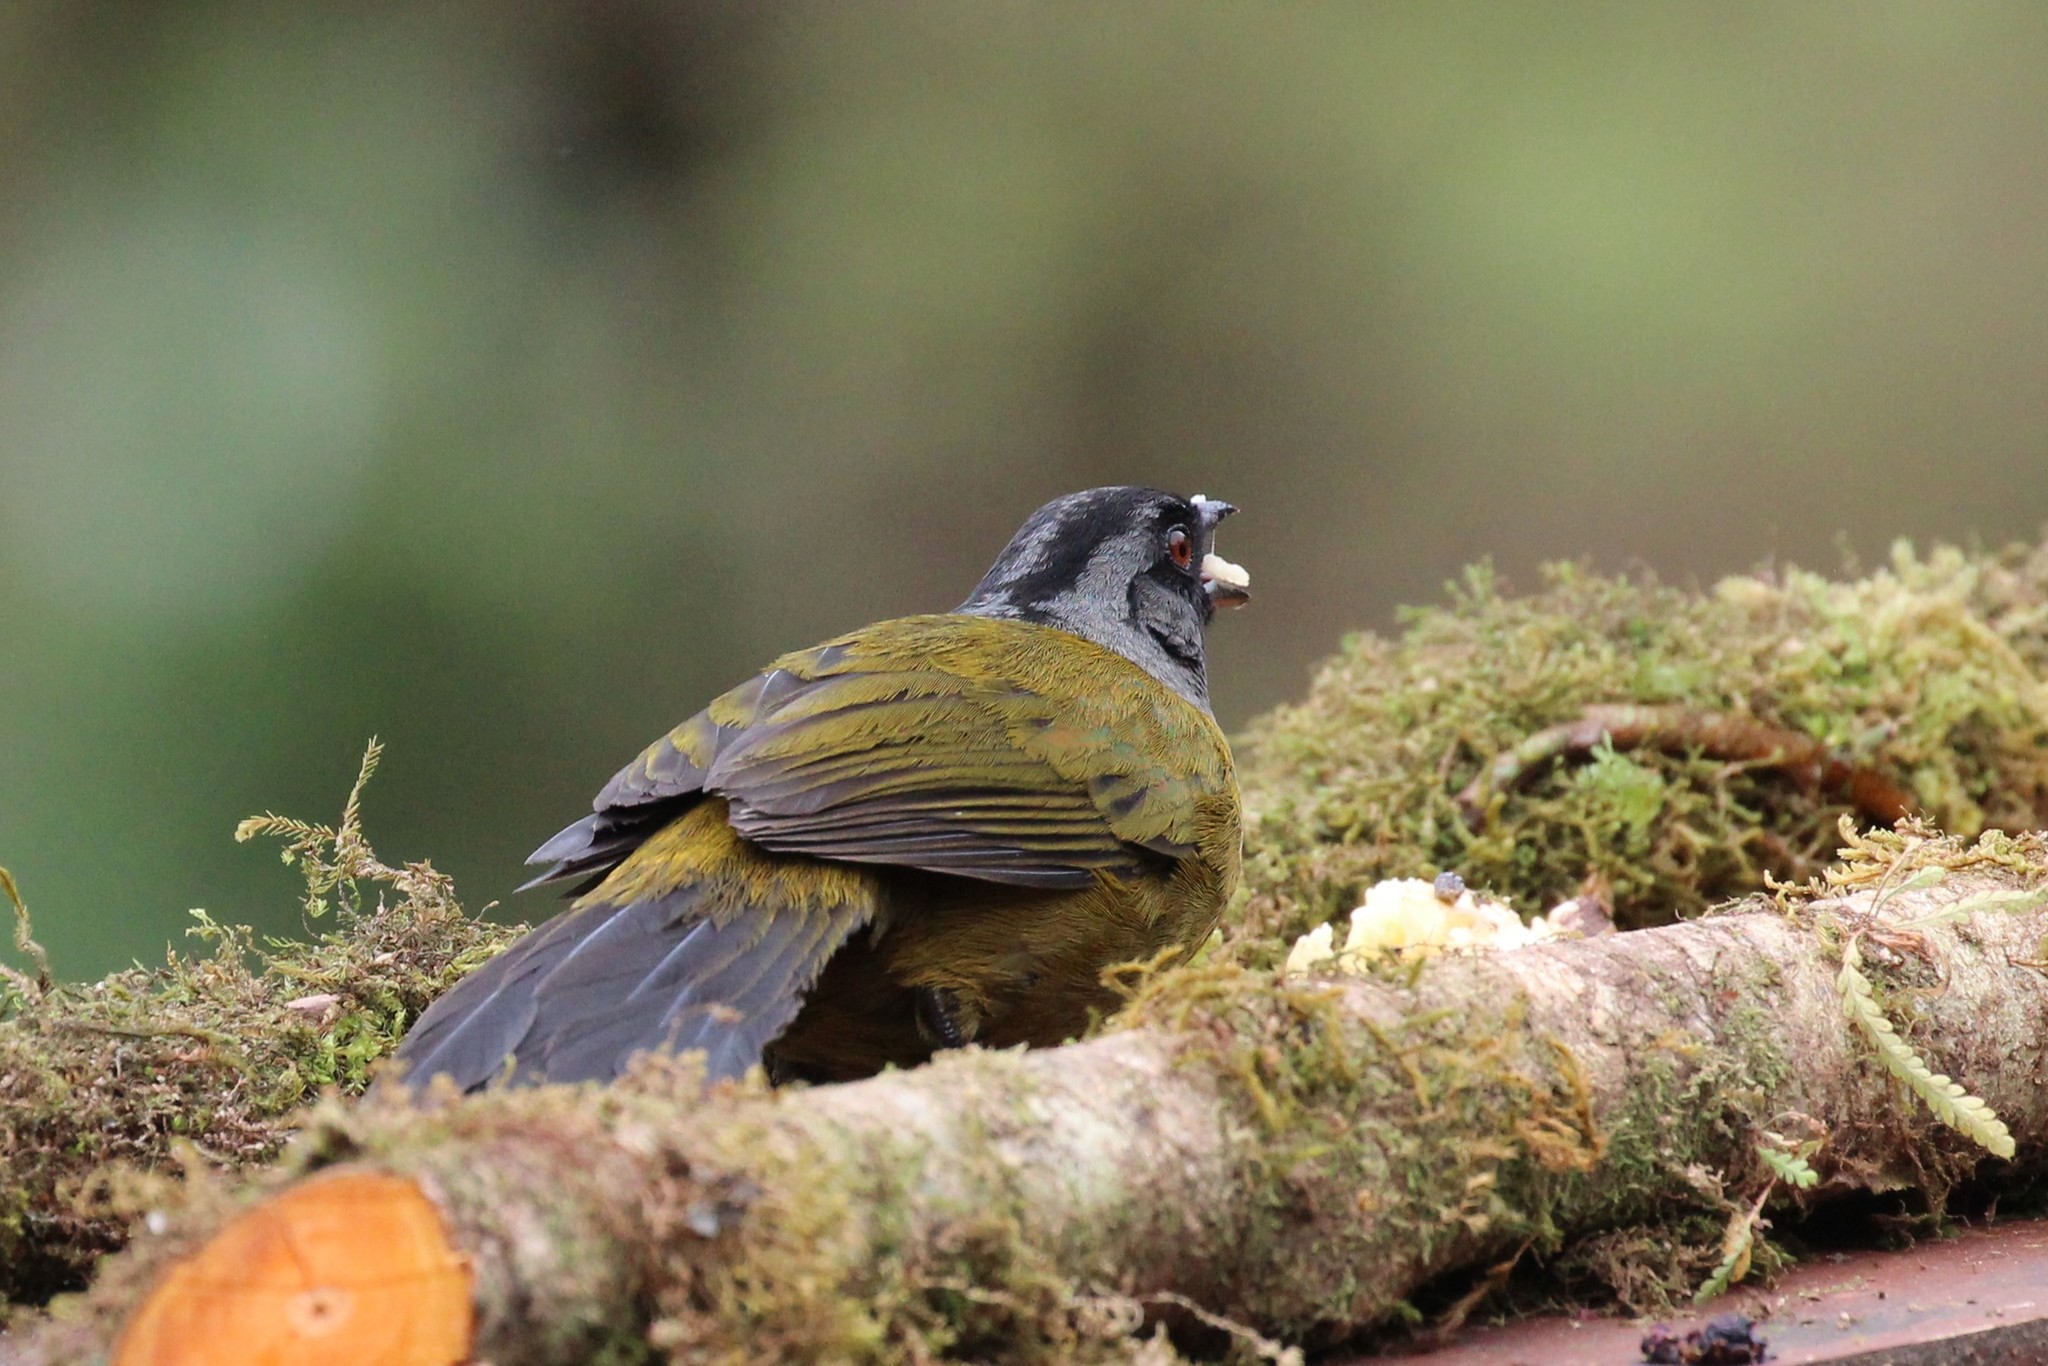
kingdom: Animalia
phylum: Chordata
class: Aves
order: Passeriformes
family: Passerellidae
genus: Pezopetes
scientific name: Pezopetes capitalis
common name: Large-footed finch
